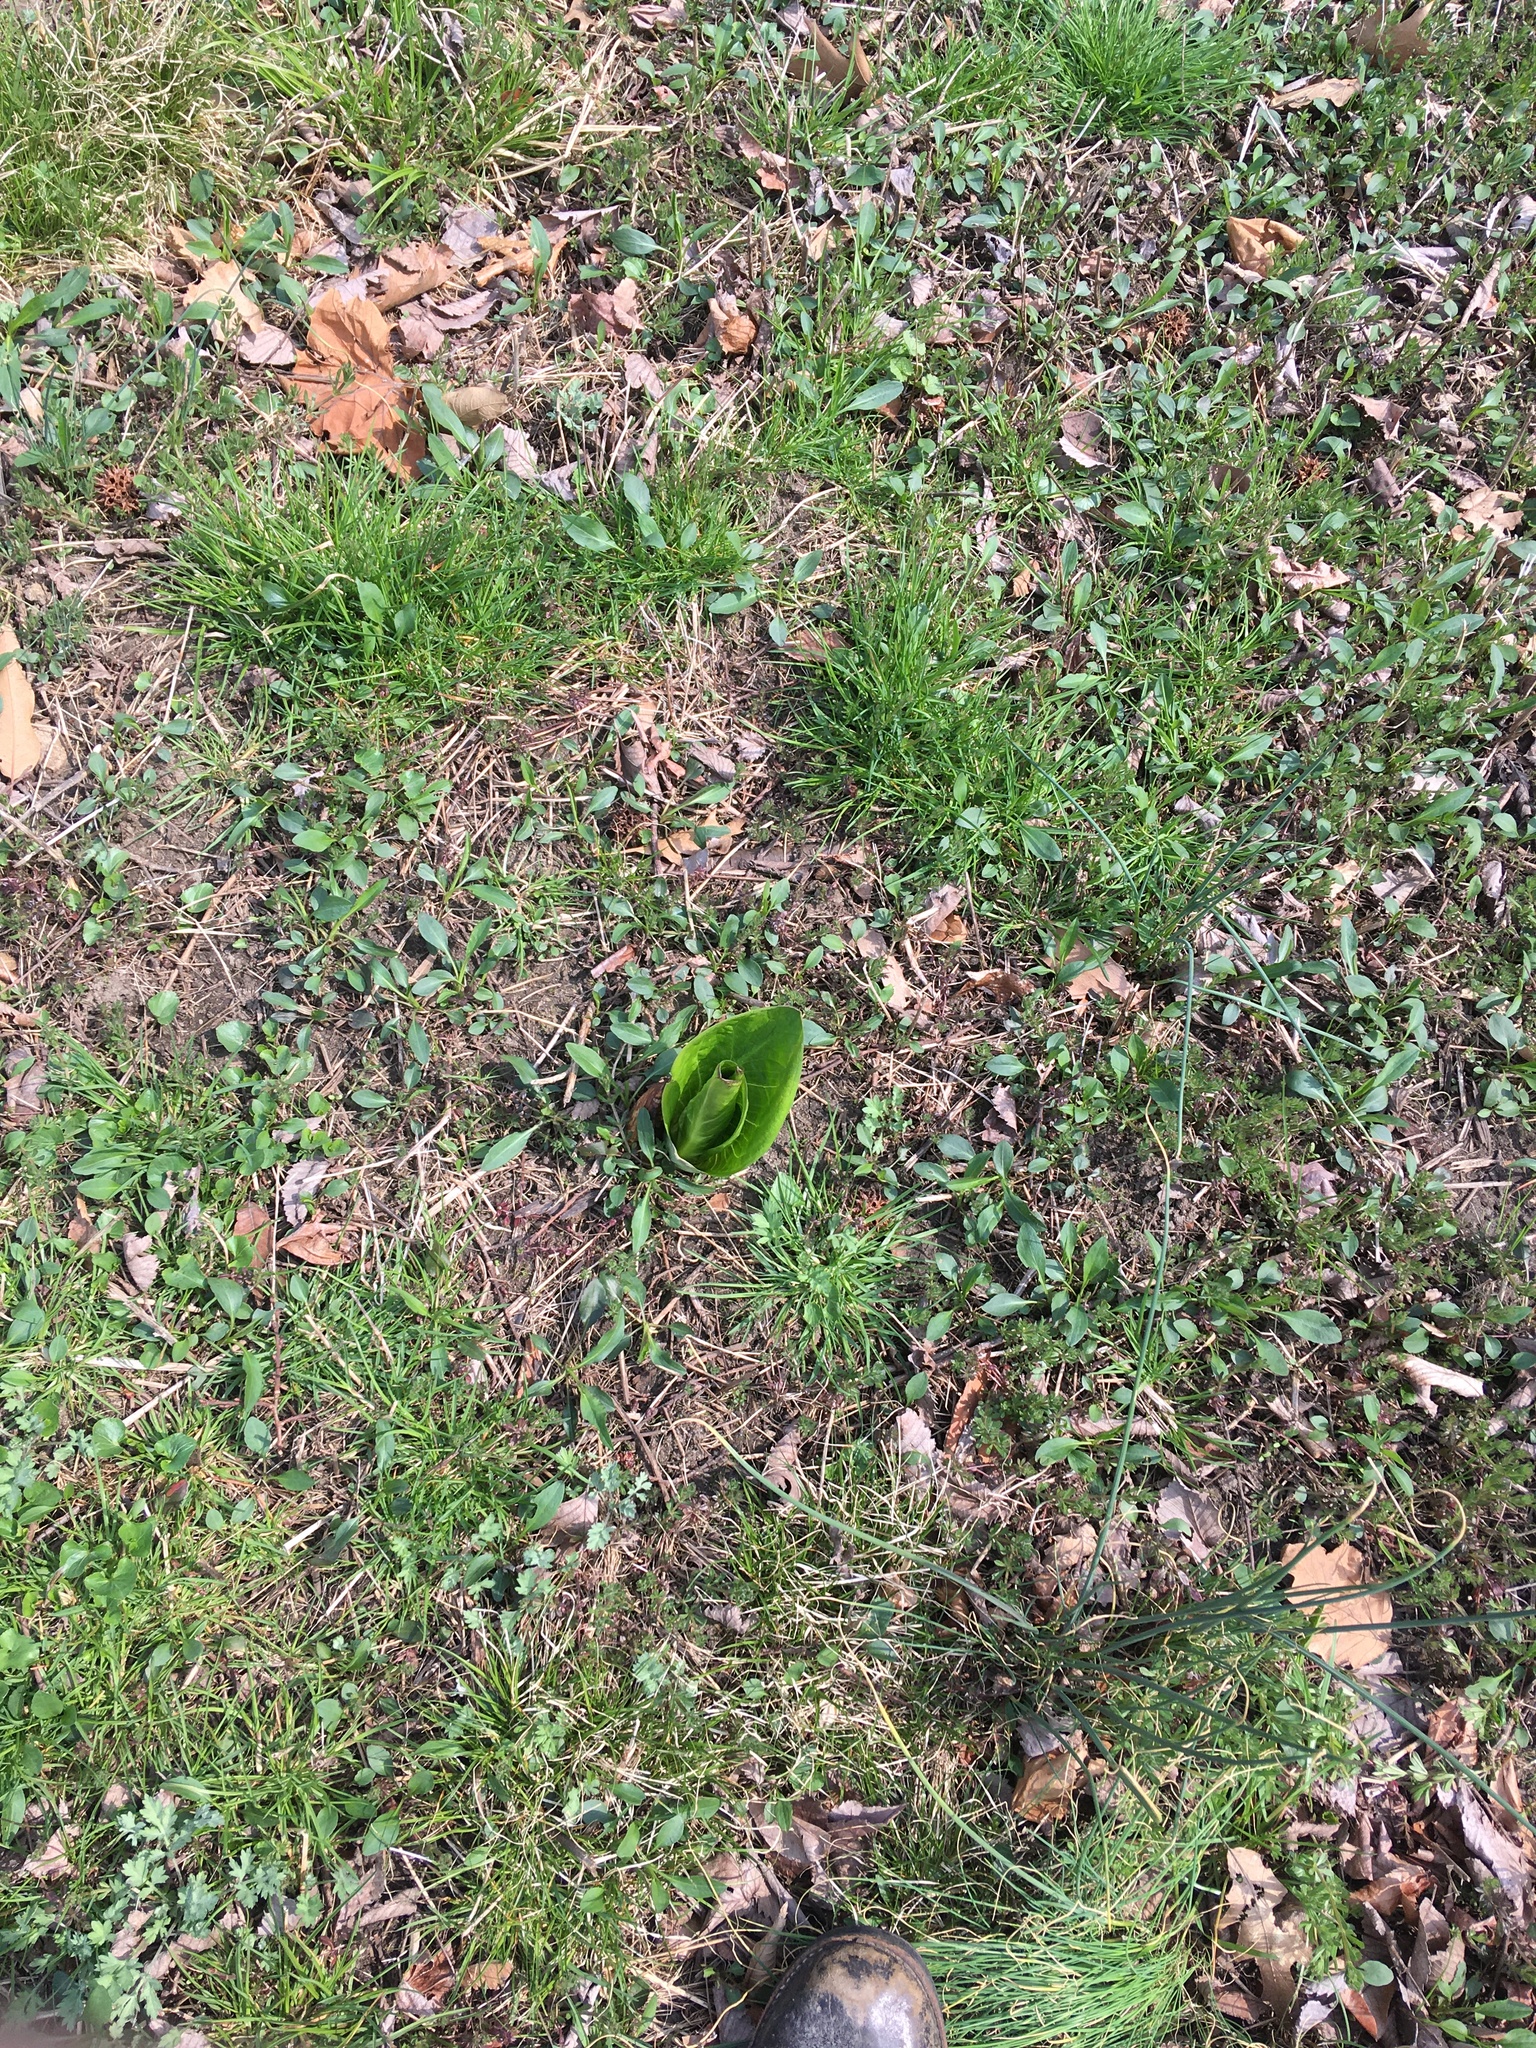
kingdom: Plantae
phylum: Tracheophyta
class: Liliopsida
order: Alismatales
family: Araceae
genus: Symplocarpus
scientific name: Symplocarpus foetidus
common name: Eastern skunk cabbage
